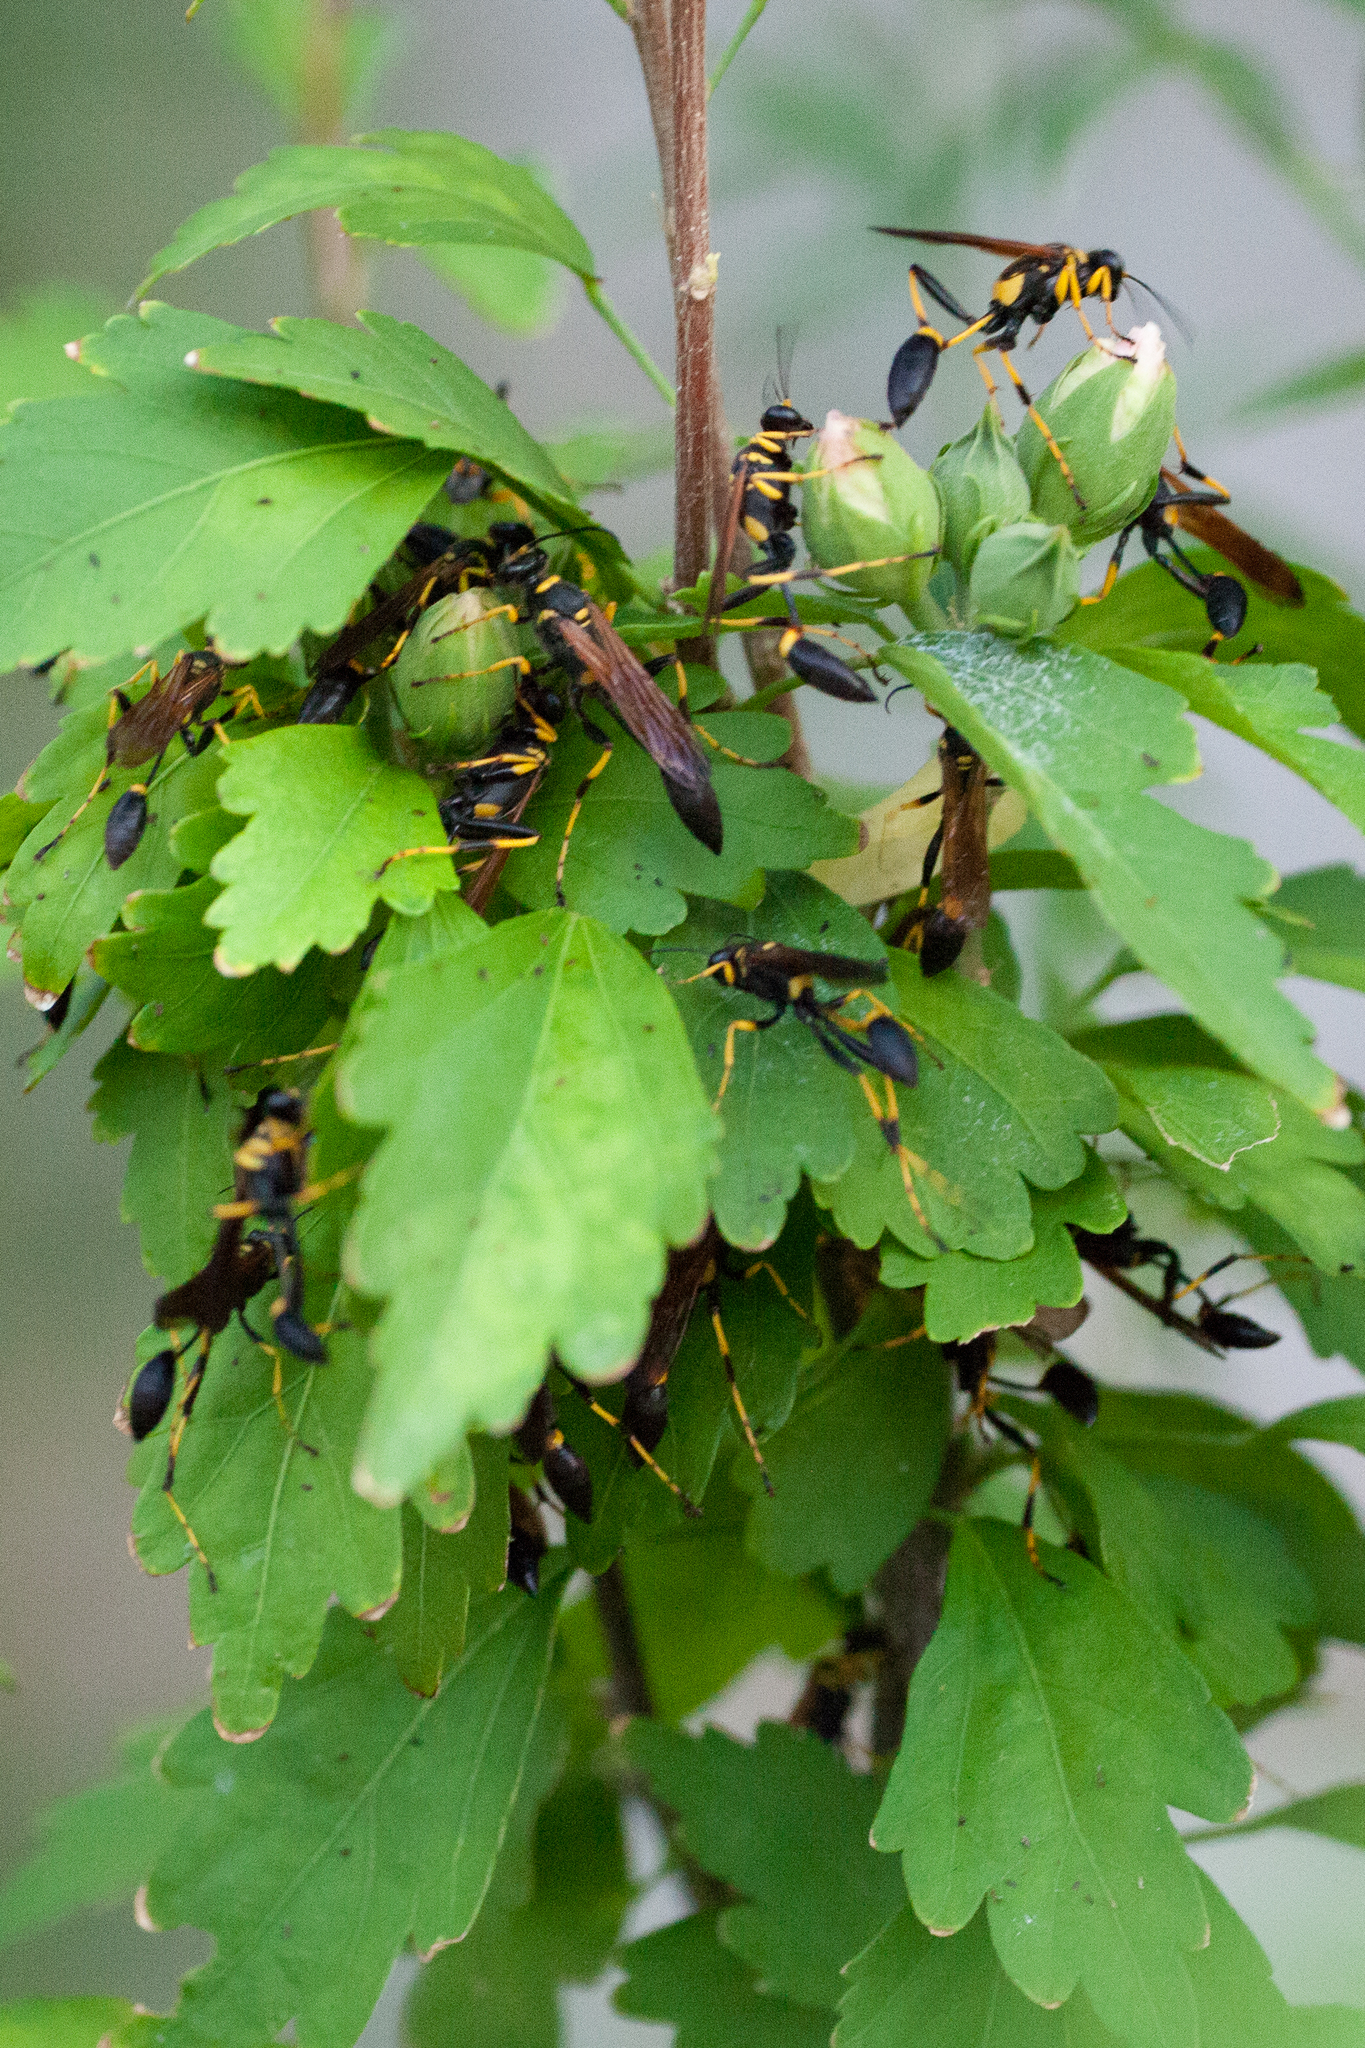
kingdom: Animalia
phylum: Arthropoda
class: Insecta
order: Hymenoptera
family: Sphecidae
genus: Sceliphron
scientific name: Sceliphron caementarium
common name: Mud dauber
